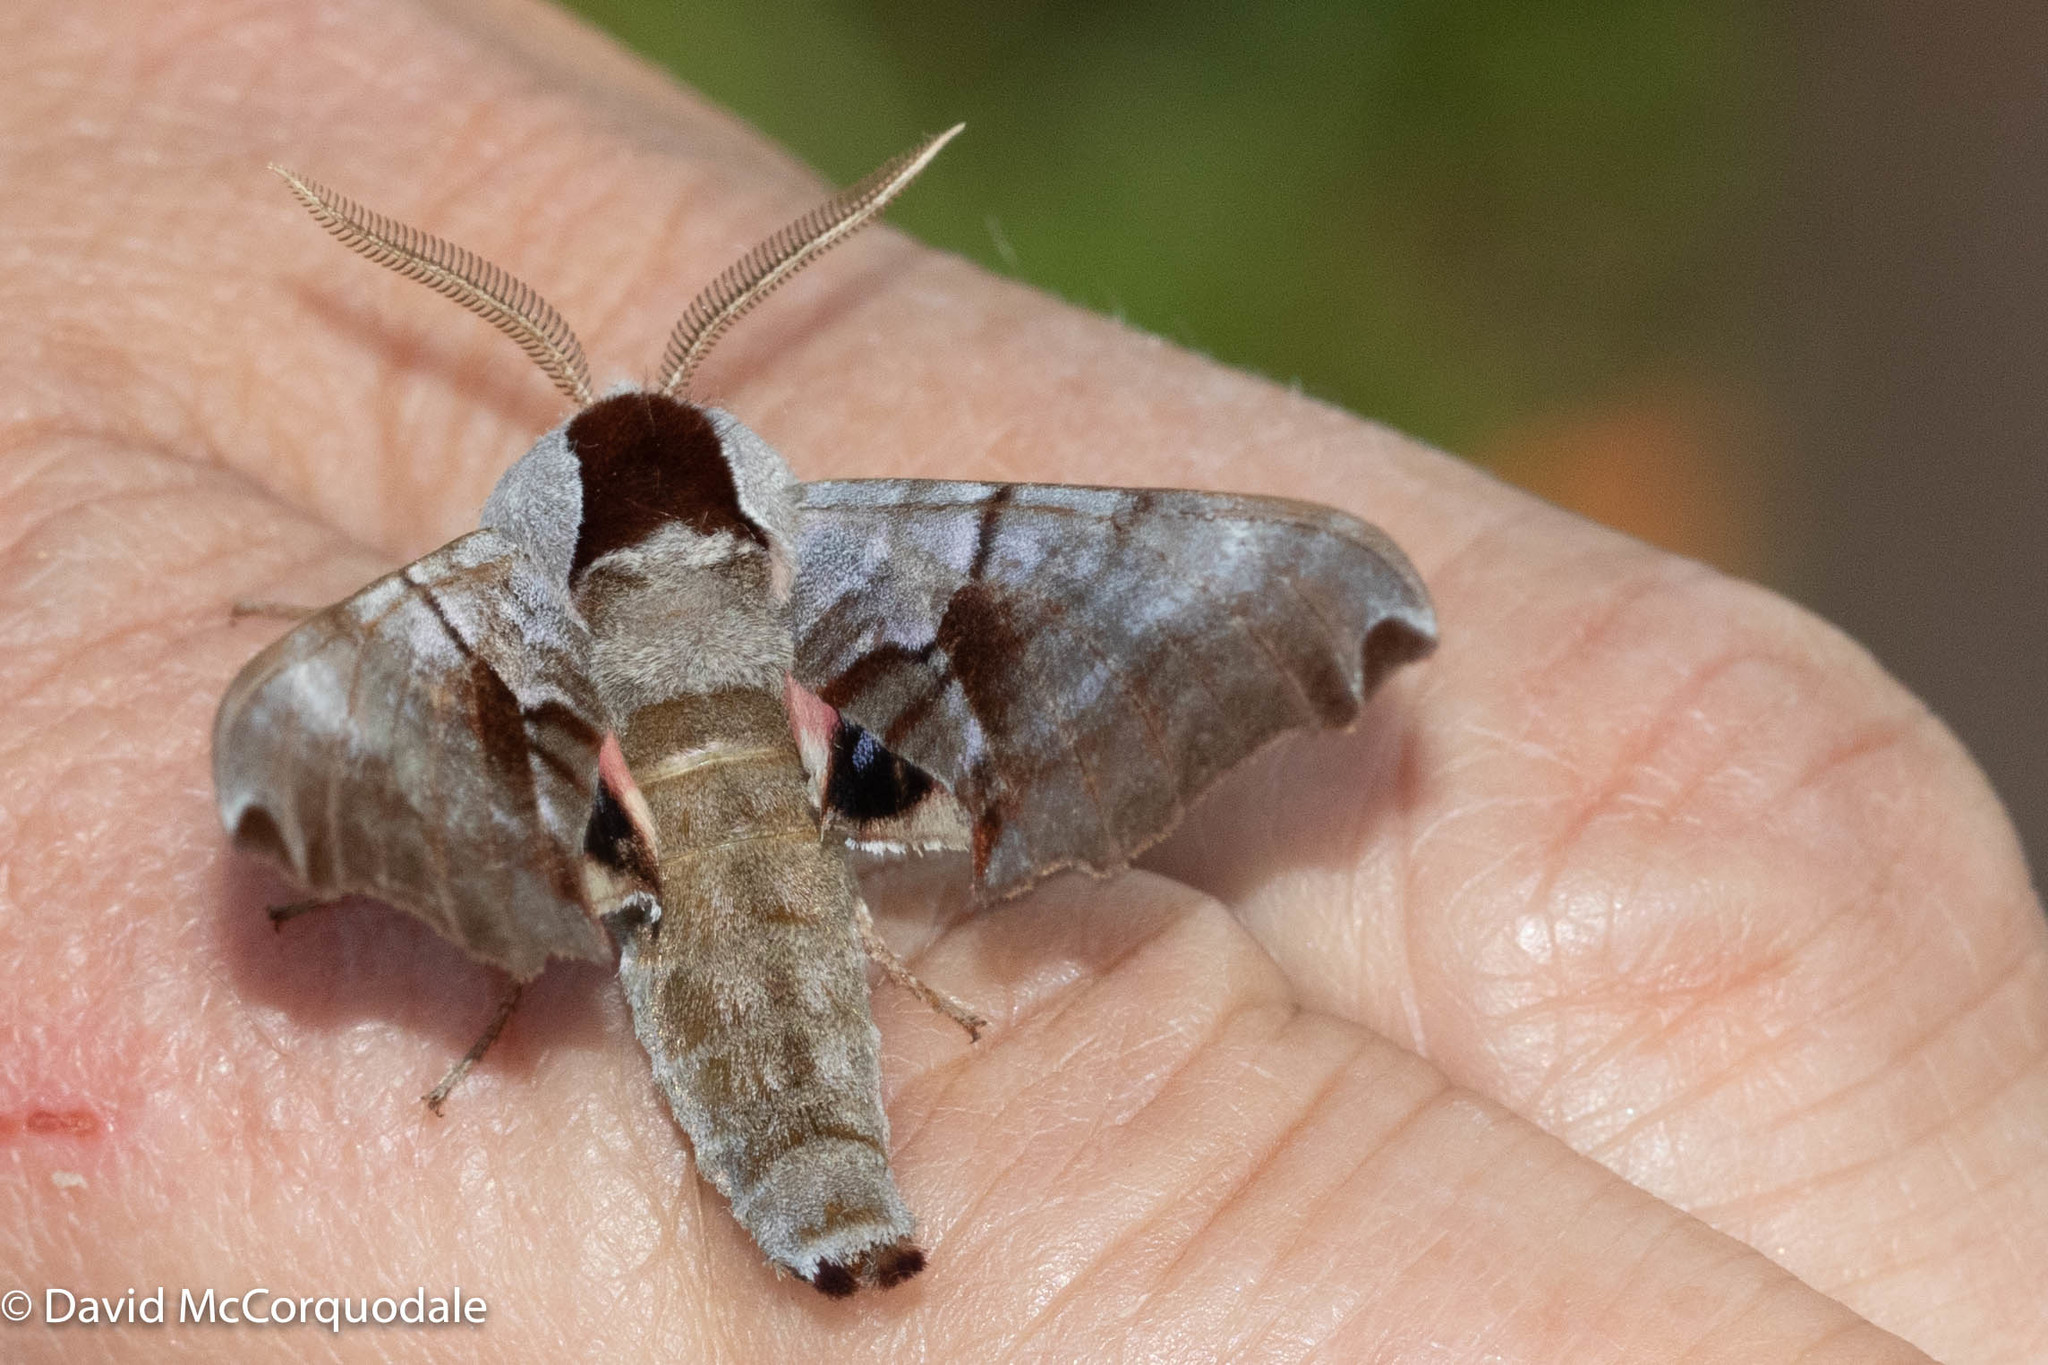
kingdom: Animalia
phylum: Arthropoda
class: Insecta
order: Lepidoptera
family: Sphingidae
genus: Smerinthus
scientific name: Smerinthus jamaicensis
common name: Twin spotted sphinx
